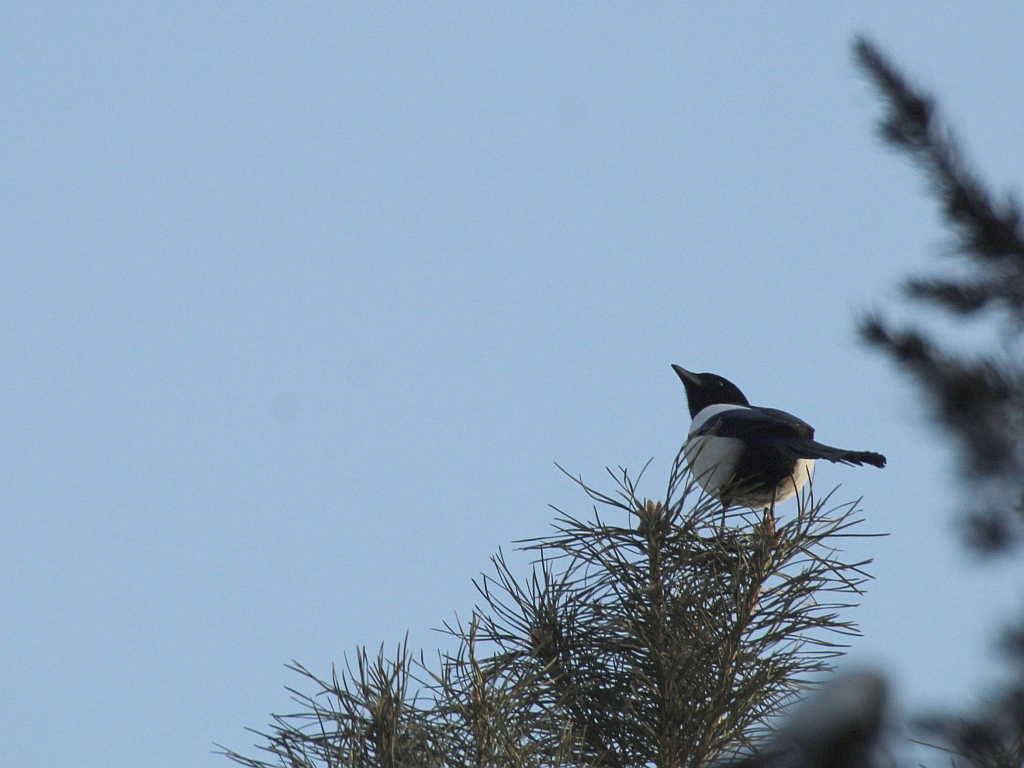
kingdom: Animalia
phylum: Chordata
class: Aves
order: Passeriformes
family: Corvidae
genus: Pica
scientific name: Pica pica
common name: Eurasian magpie
